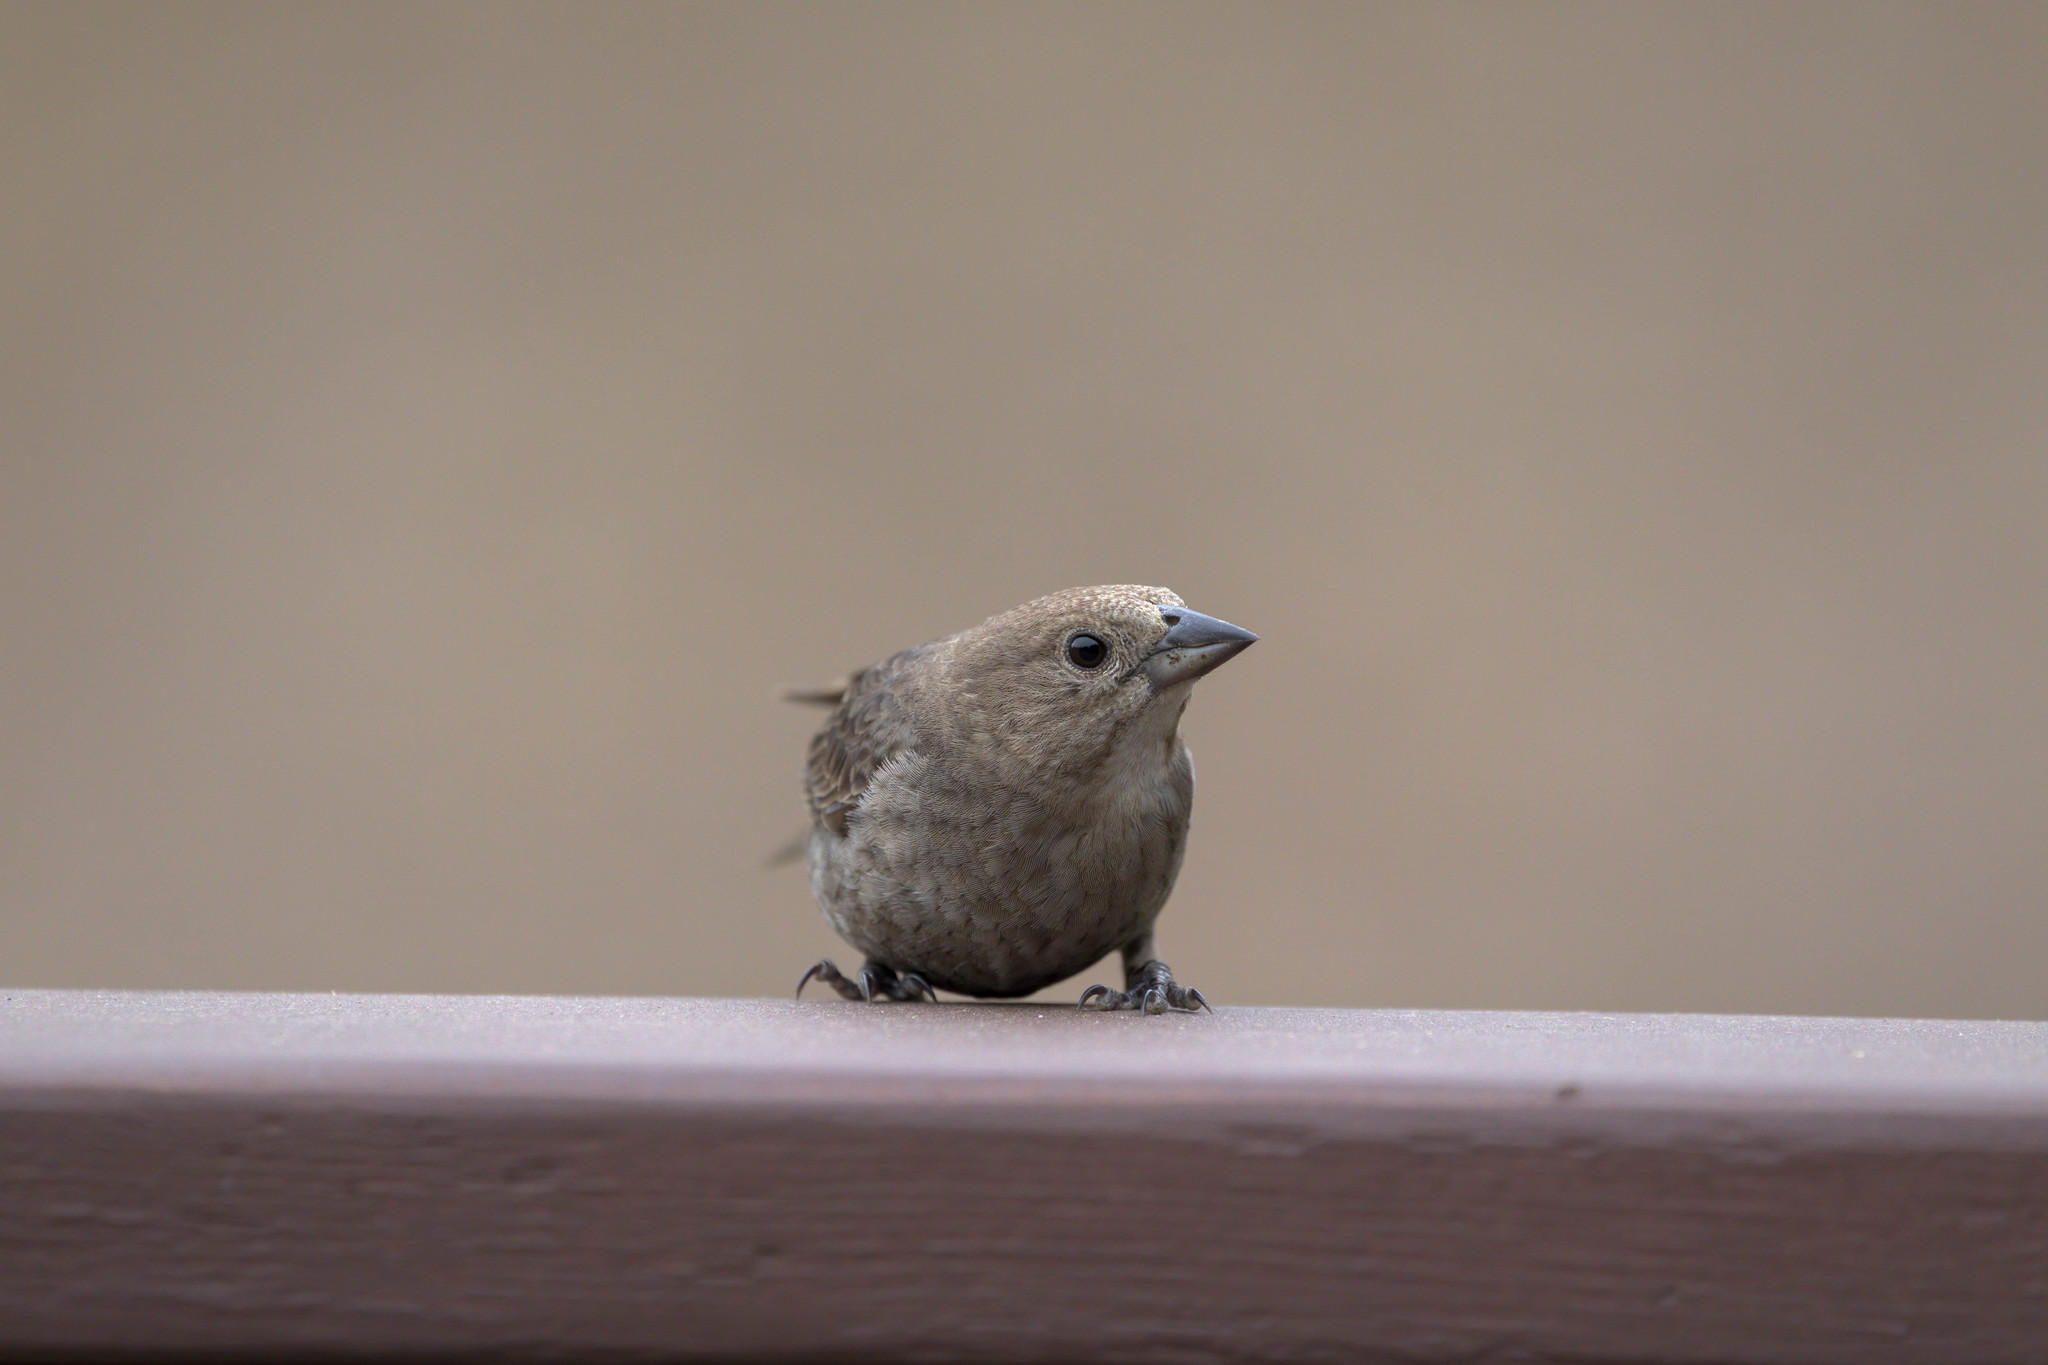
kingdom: Animalia
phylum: Chordata
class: Aves
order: Passeriformes
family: Icteridae
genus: Molothrus
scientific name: Molothrus ater
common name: Brown-headed cowbird
